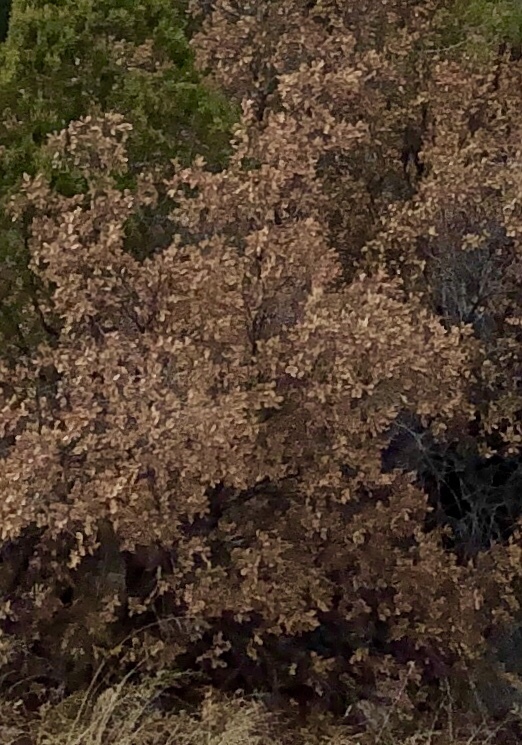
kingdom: Plantae
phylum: Tracheophyta
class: Magnoliopsida
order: Fagales
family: Fagaceae
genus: Quercus
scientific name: Quercus gambelii
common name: Gambel oak
